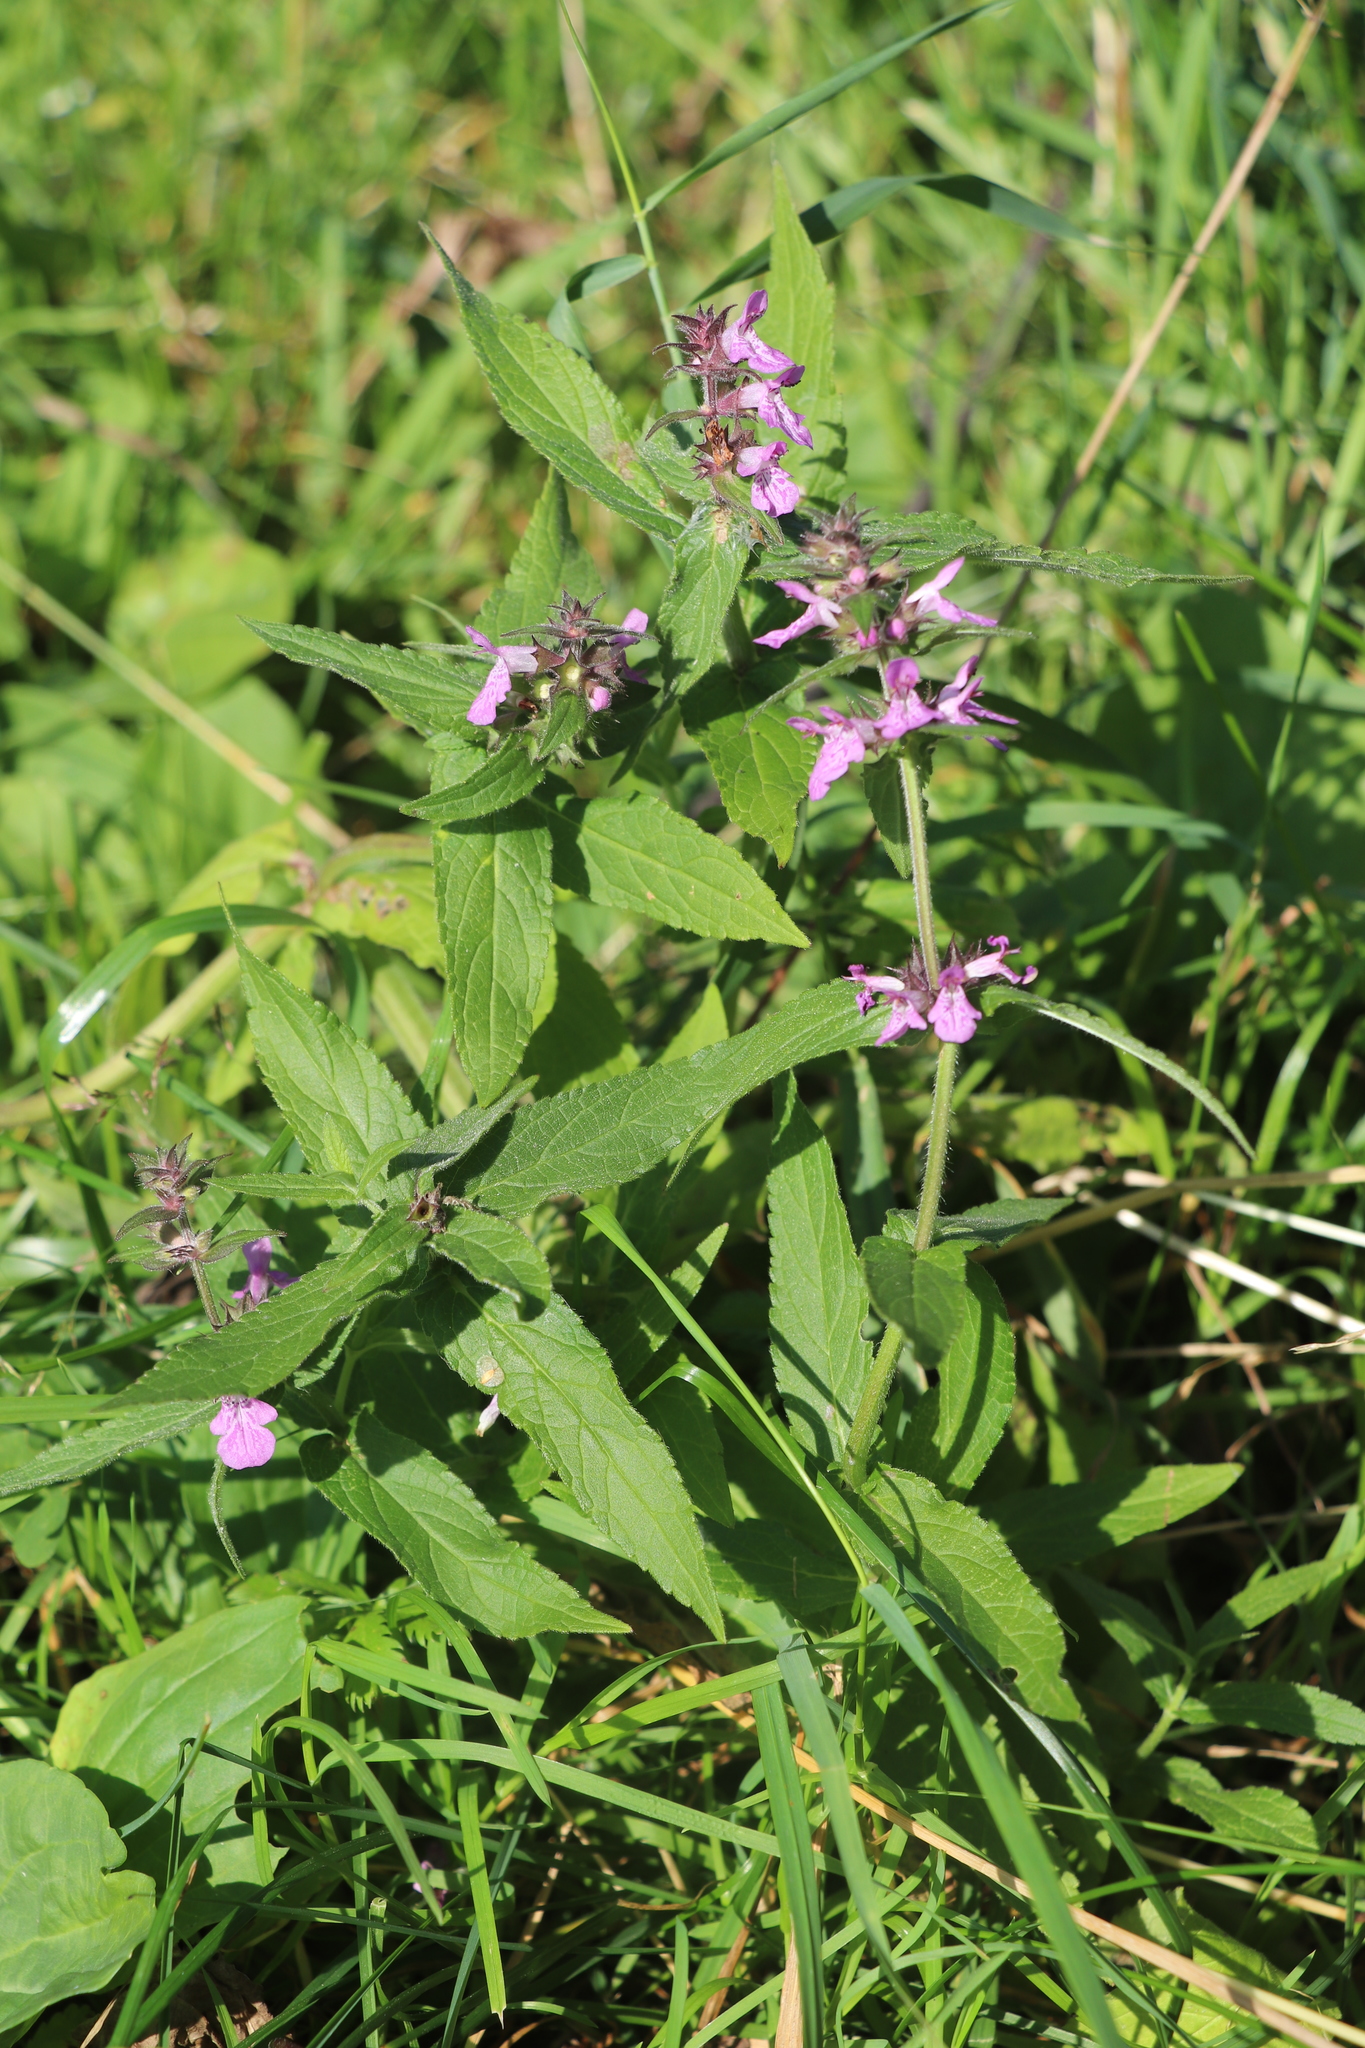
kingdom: Plantae
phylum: Tracheophyta
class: Magnoliopsida
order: Lamiales
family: Lamiaceae
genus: Stachys
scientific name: Stachys palustris
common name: Marsh woundwort
